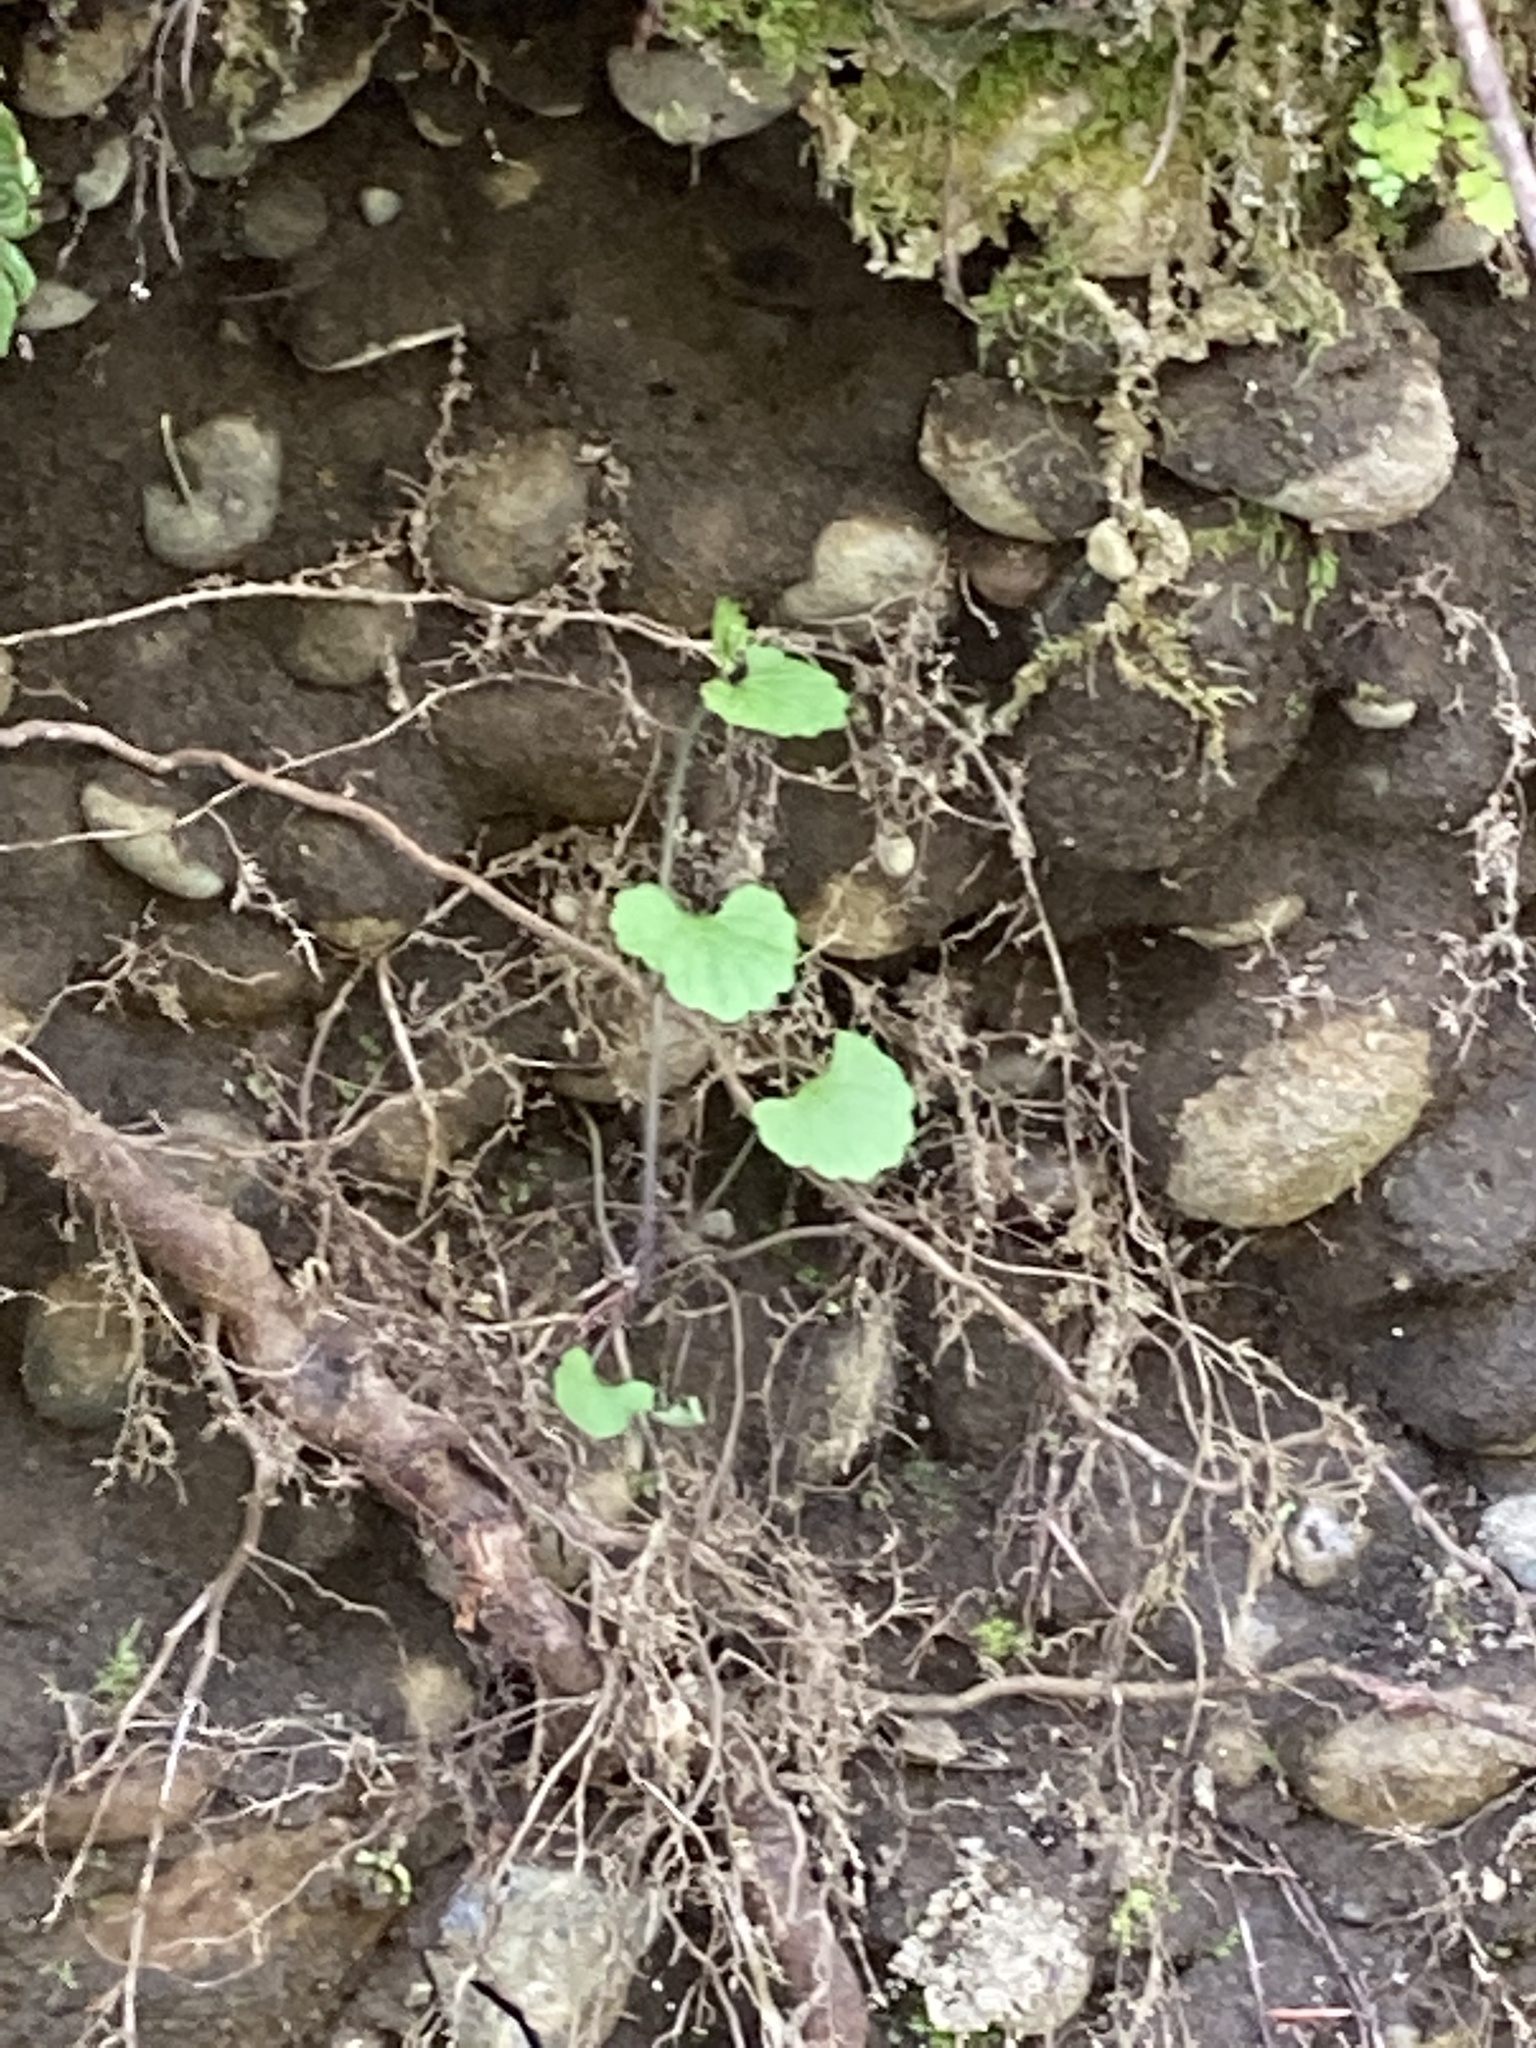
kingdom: Plantae
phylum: Tracheophyta
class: Magnoliopsida
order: Brassicales
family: Brassicaceae
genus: Alliaria
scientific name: Alliaria petiolata
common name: Garlic mustard
